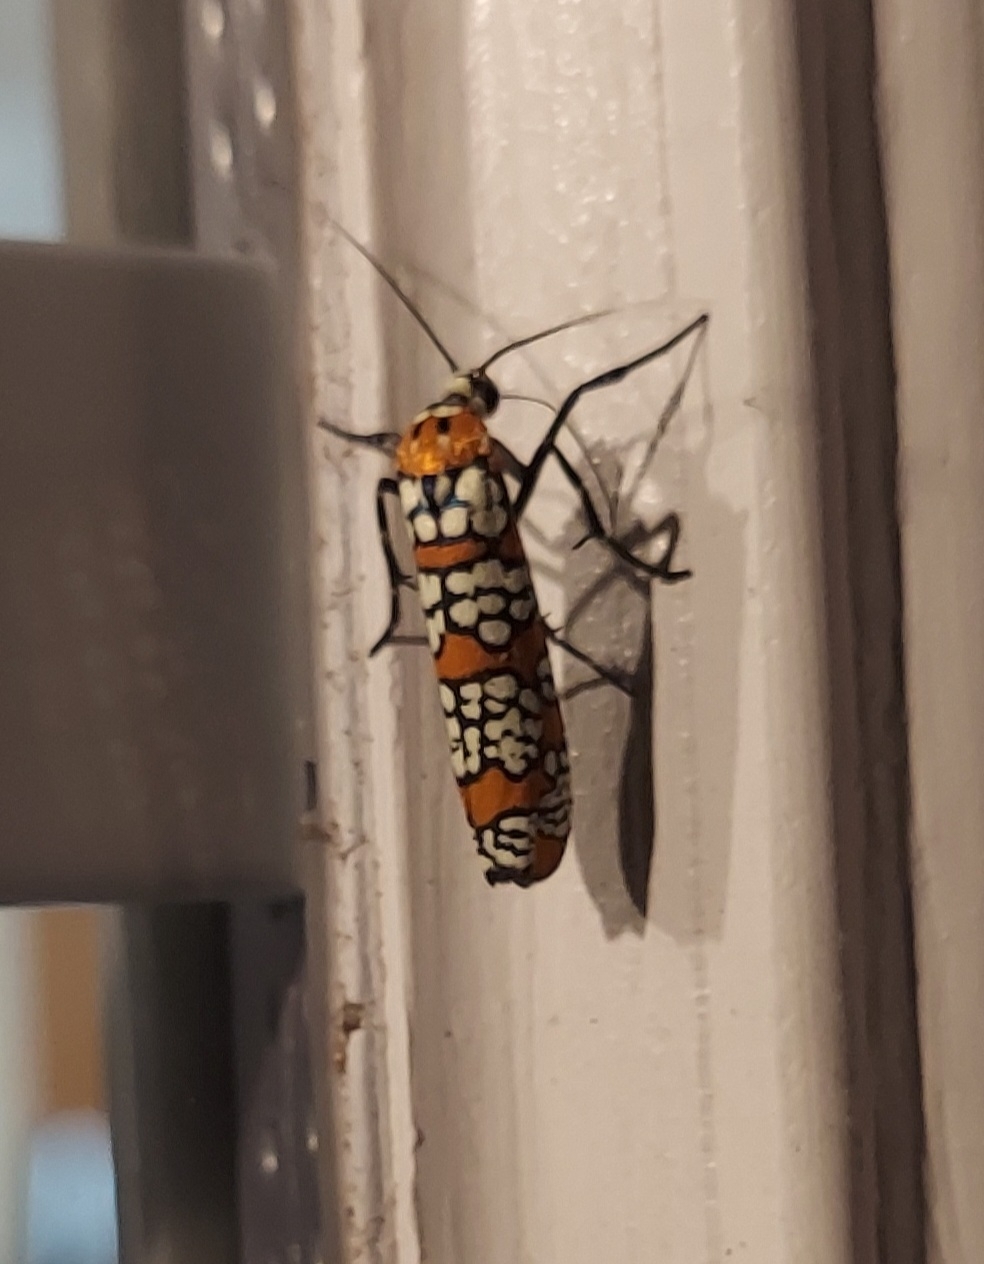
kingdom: Animalia
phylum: Arthropoda
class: Insecta
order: Lepidoptera
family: Attevidae
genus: Atteva
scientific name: Atteva punctella
